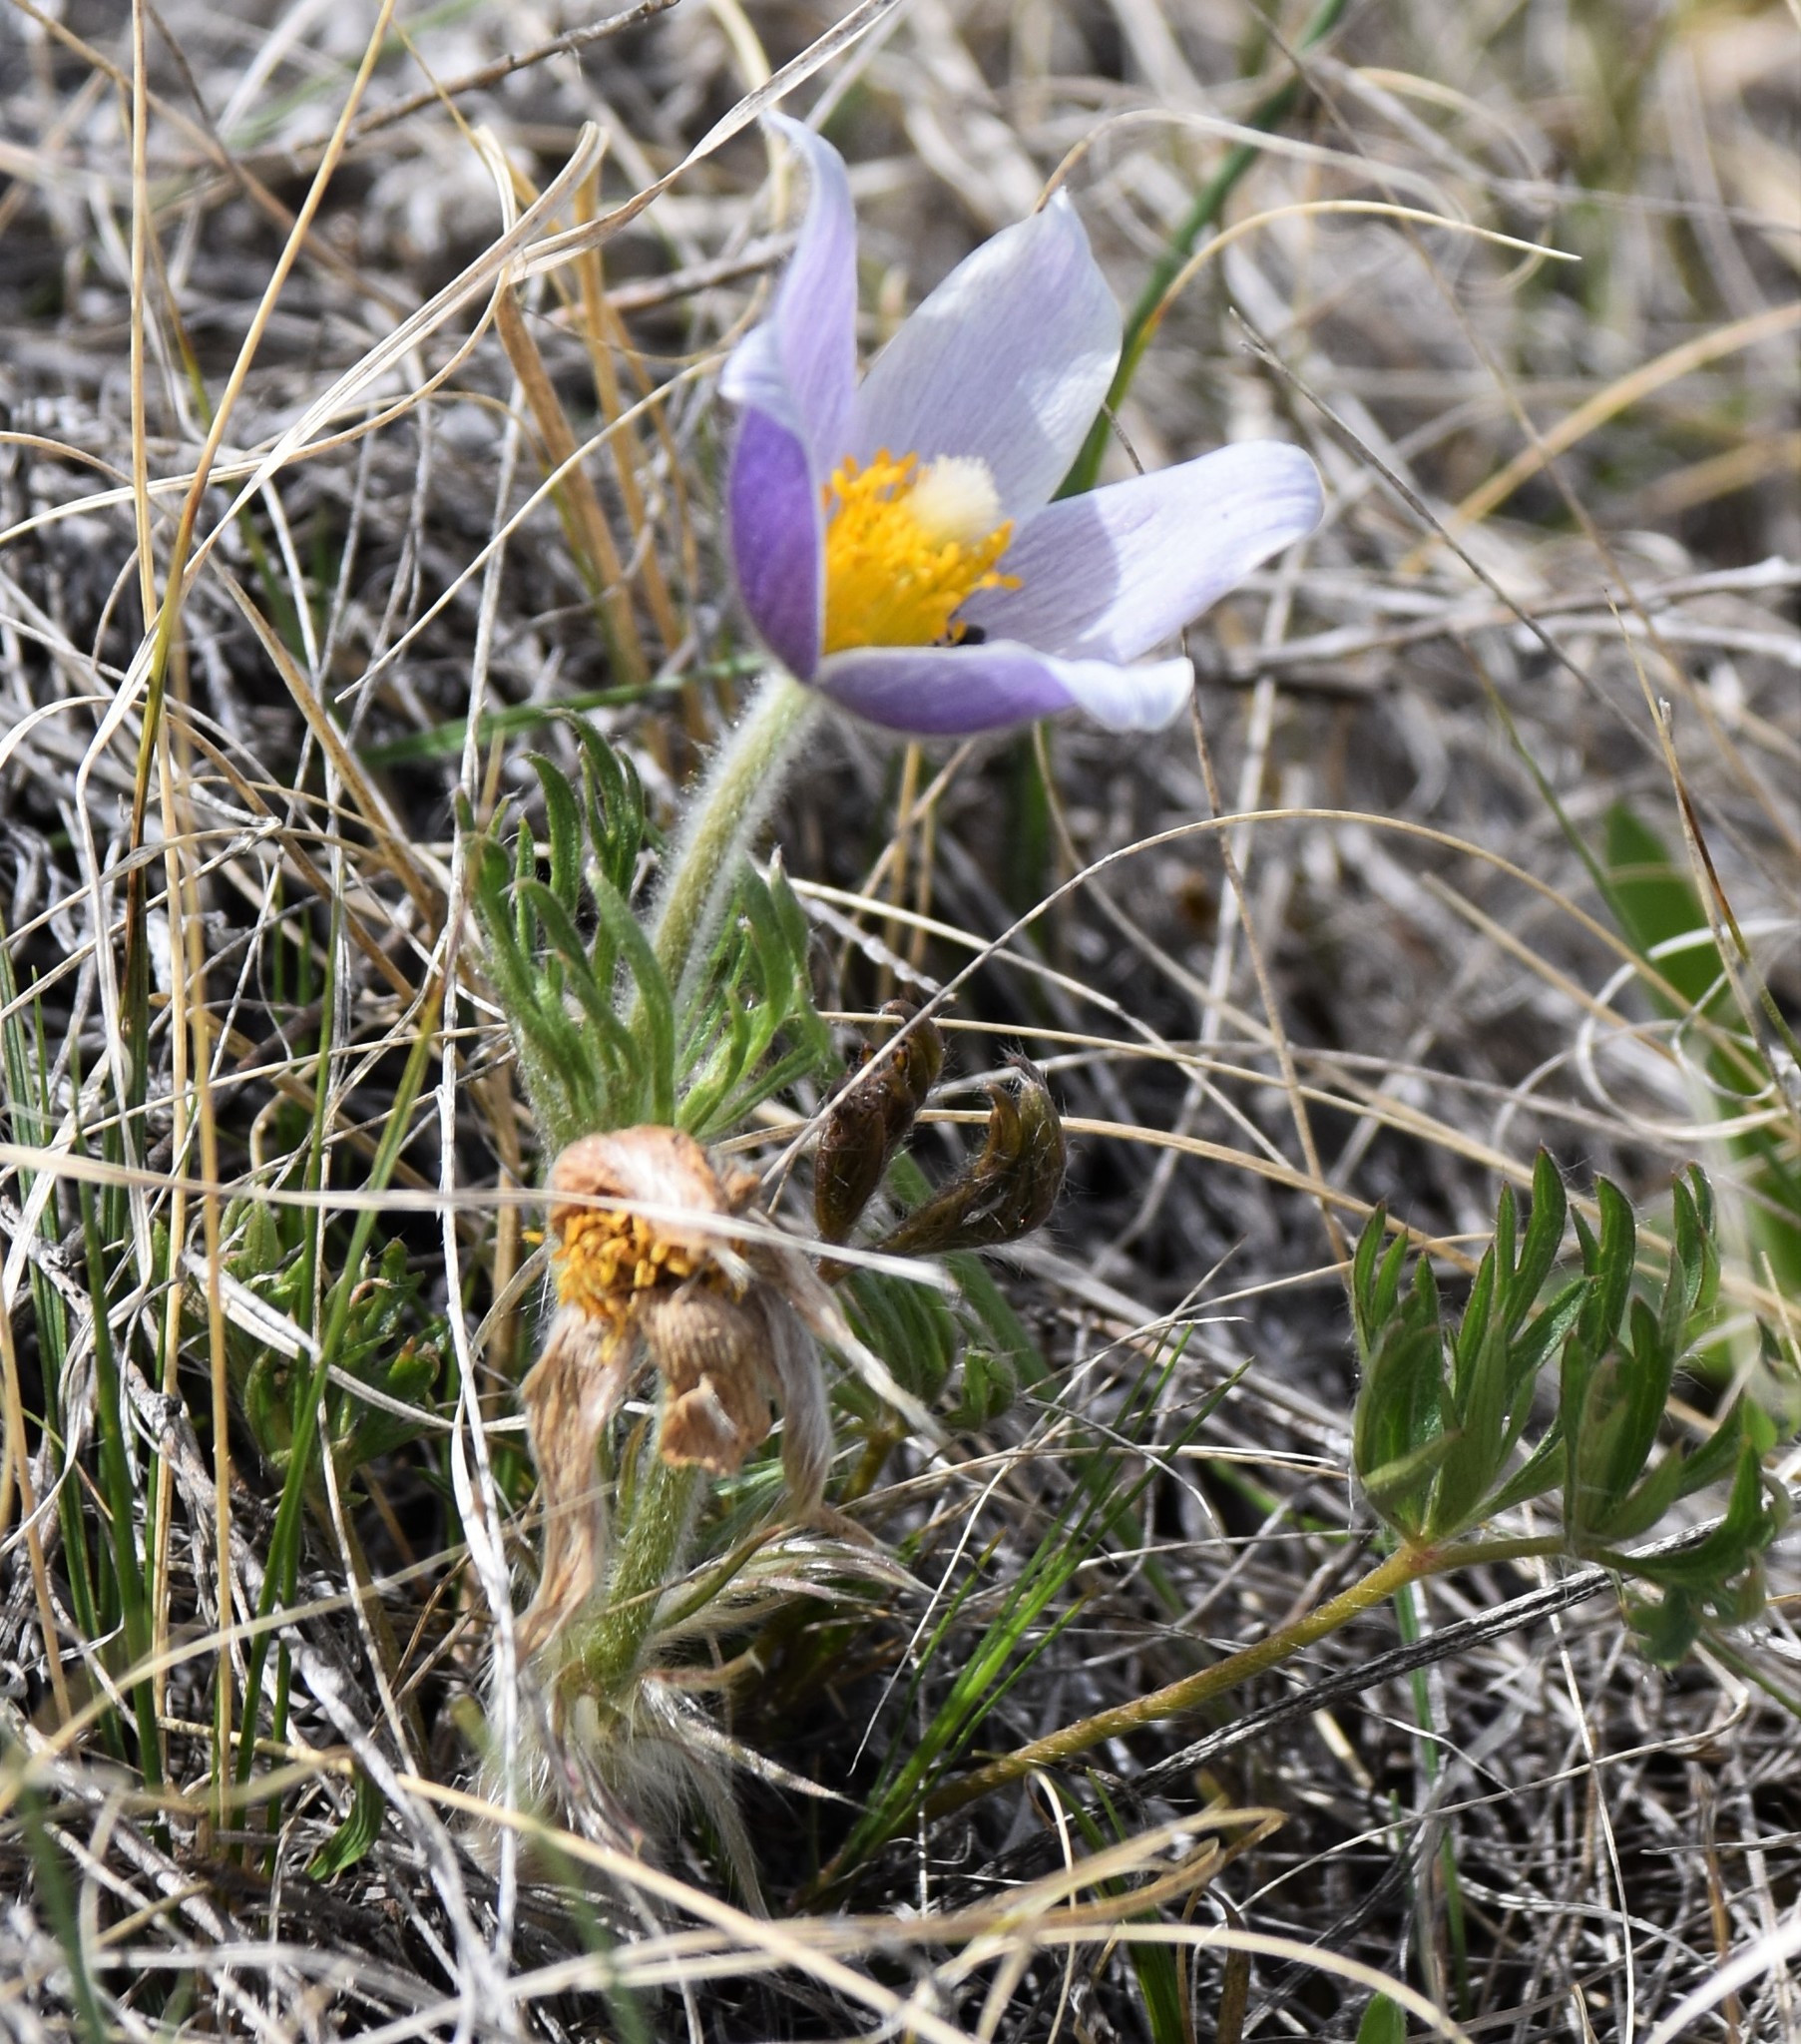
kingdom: Plantae
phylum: Tracheophyta
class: Magnoliopsida
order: Ranunculales
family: Ranunculaceae
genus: Pulsatilla
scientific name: Pulsatilla nuttalliana
